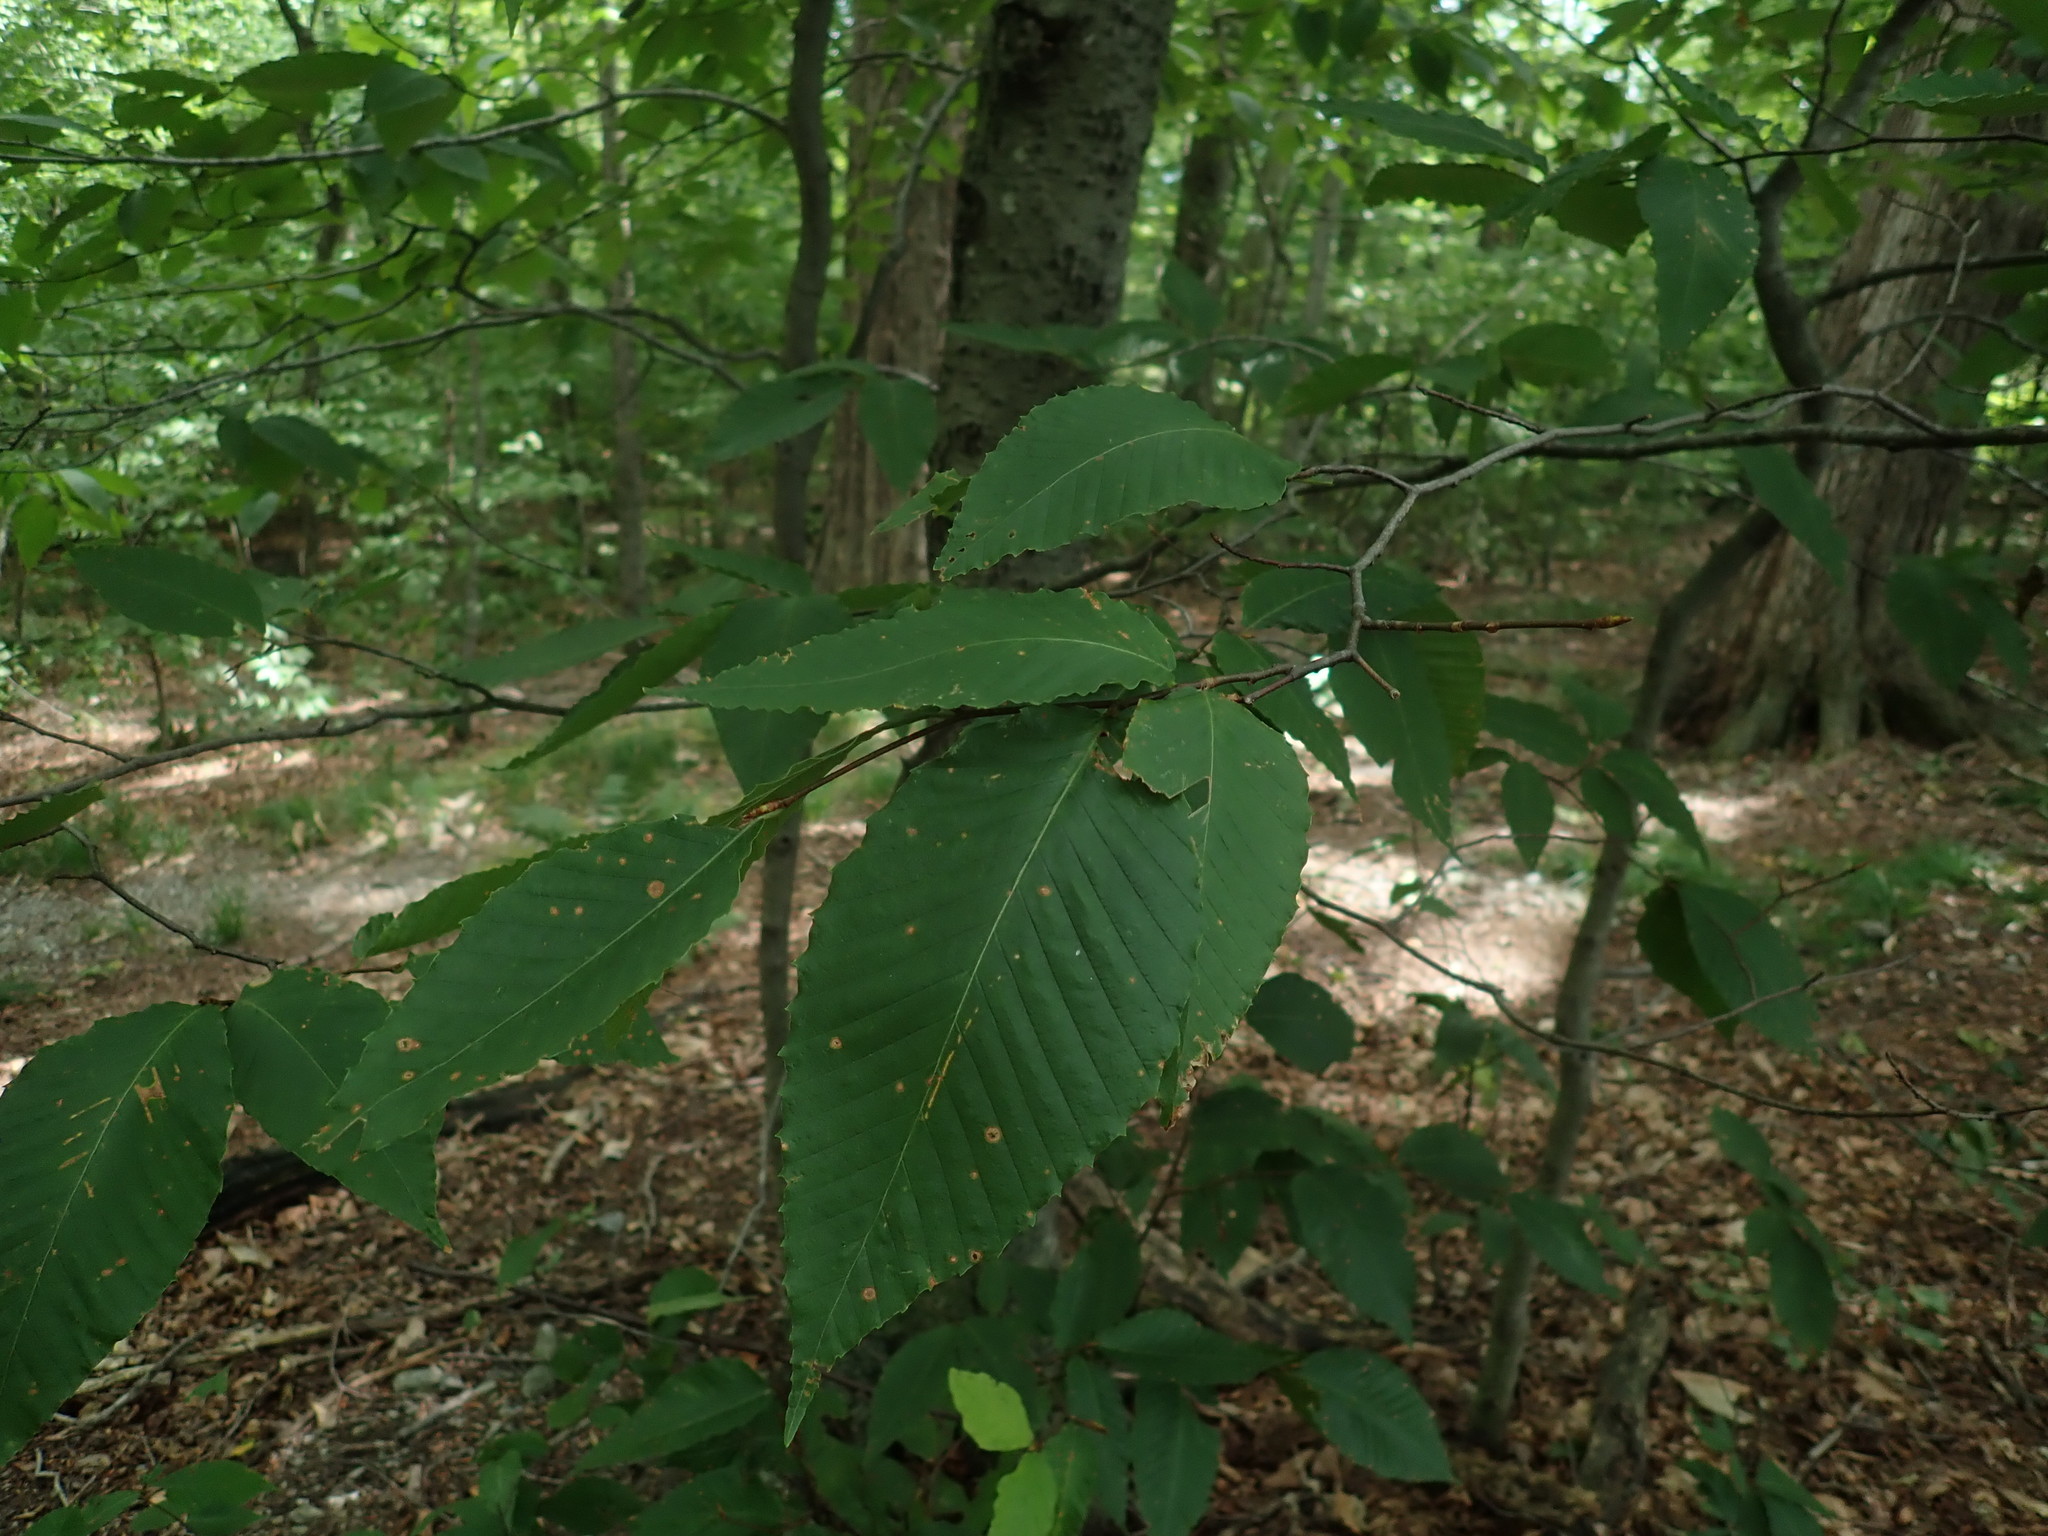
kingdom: Plantae
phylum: Tracheophyta
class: Magnoliopsida
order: Fagales
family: Fagaceae
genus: Fagus
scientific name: Fagus grandifolia
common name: American beech
